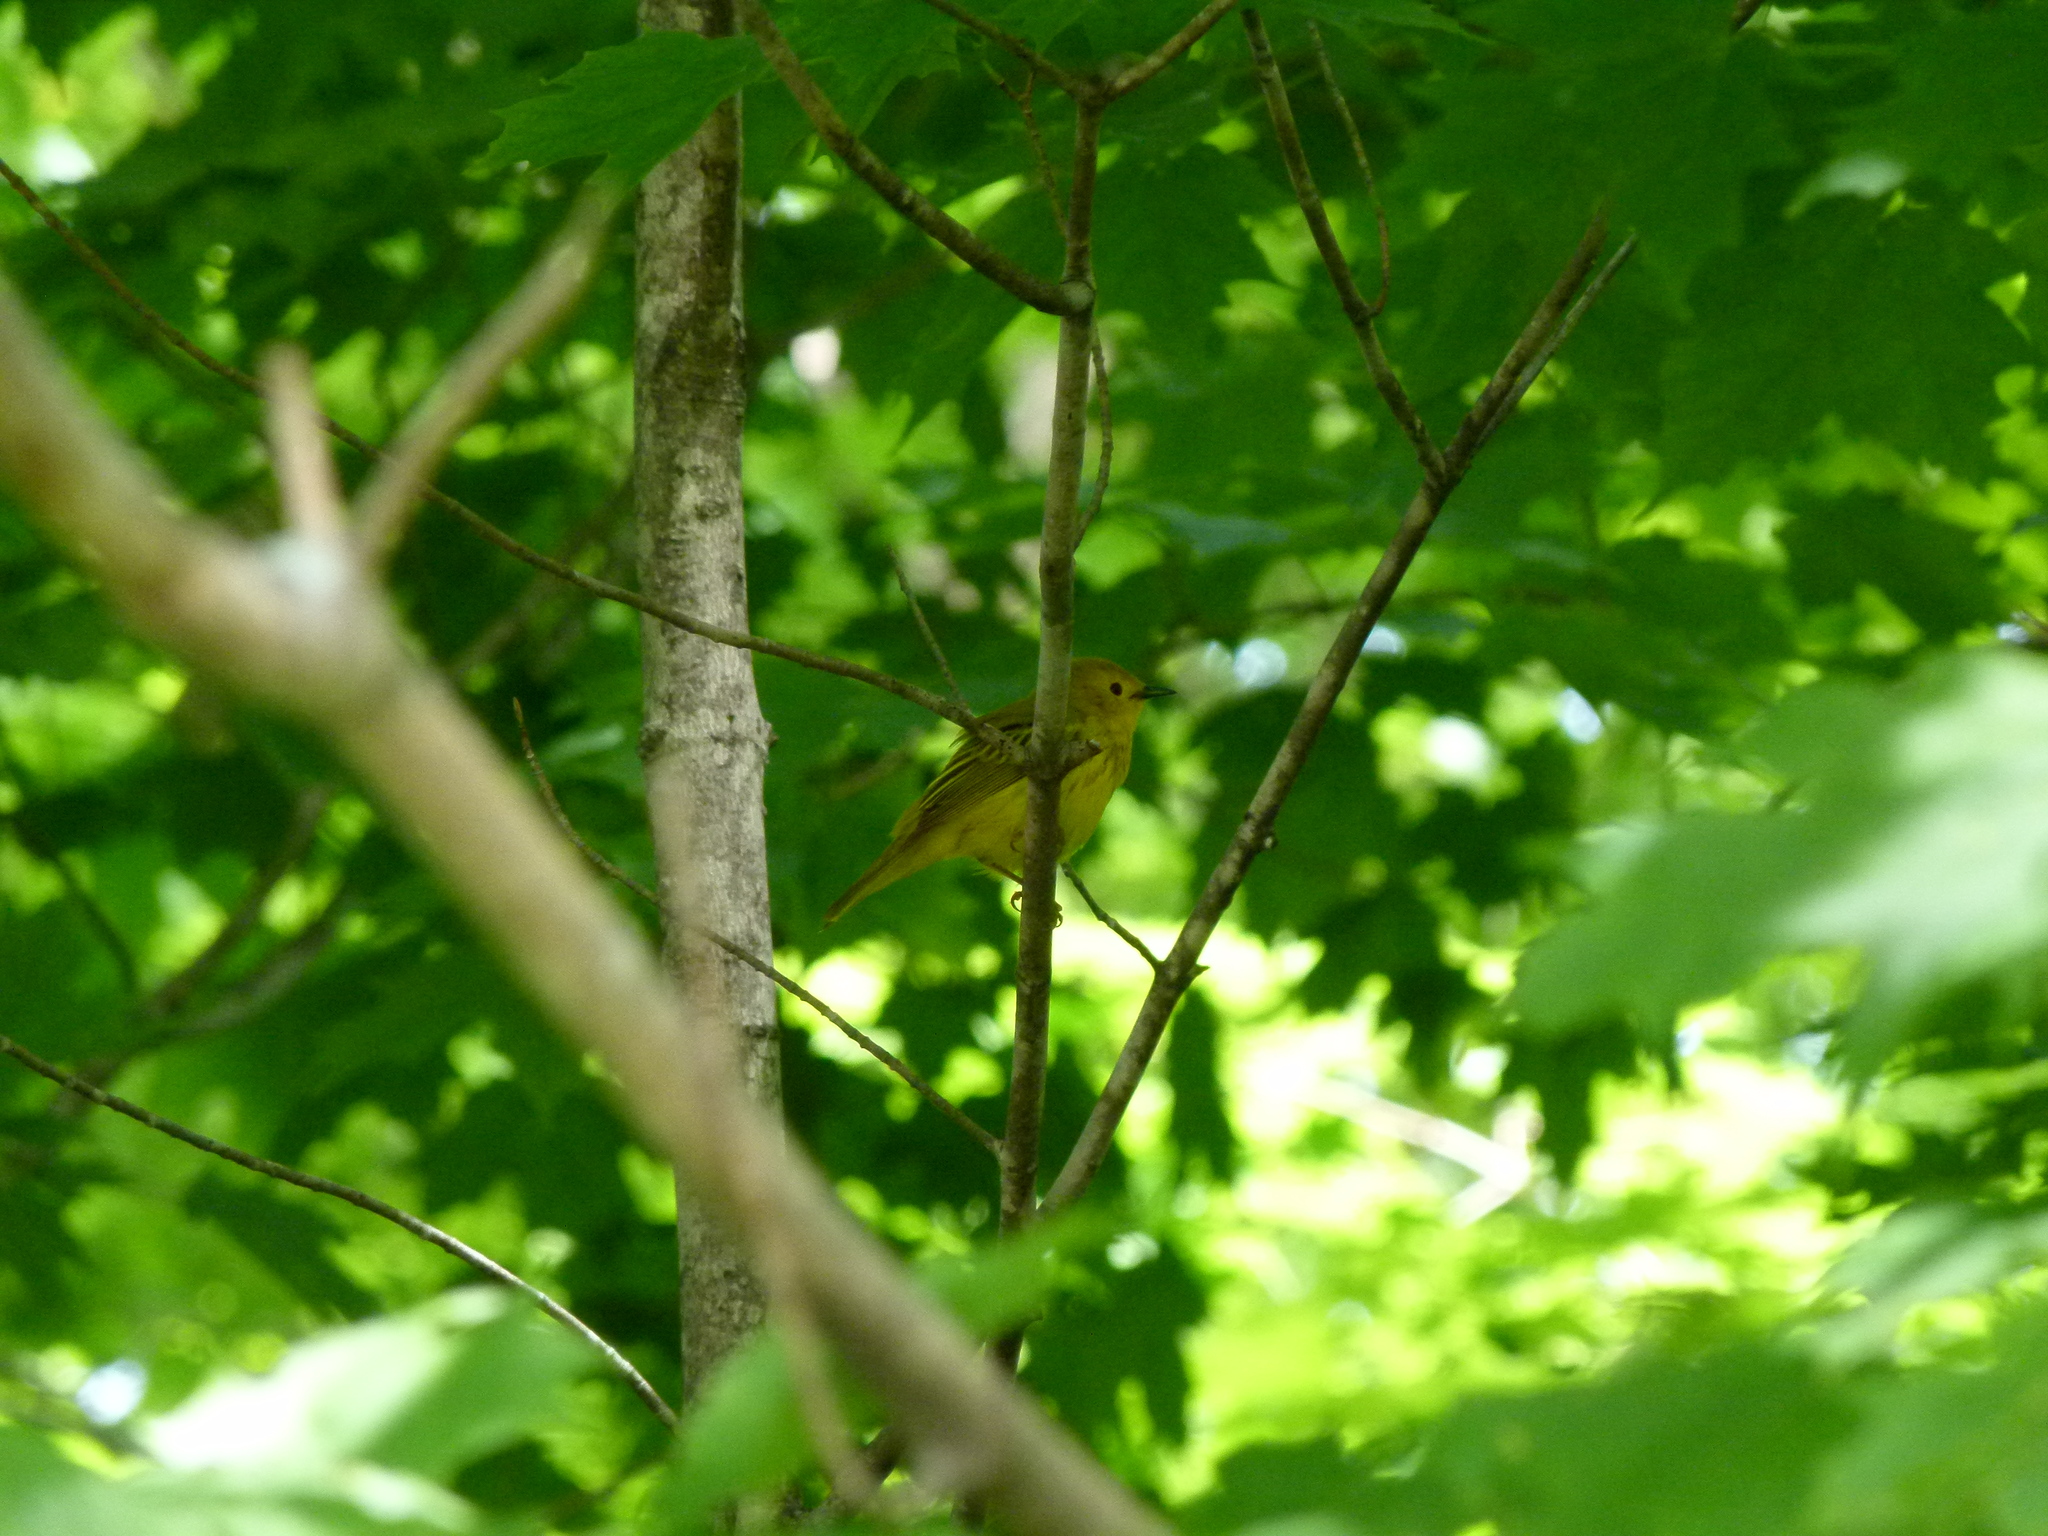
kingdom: Animalia
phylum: Chordata
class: Aves
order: Passeriformes
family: Parulidae
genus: Setophaga
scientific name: Setophaga petechia
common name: Yellow warbler
